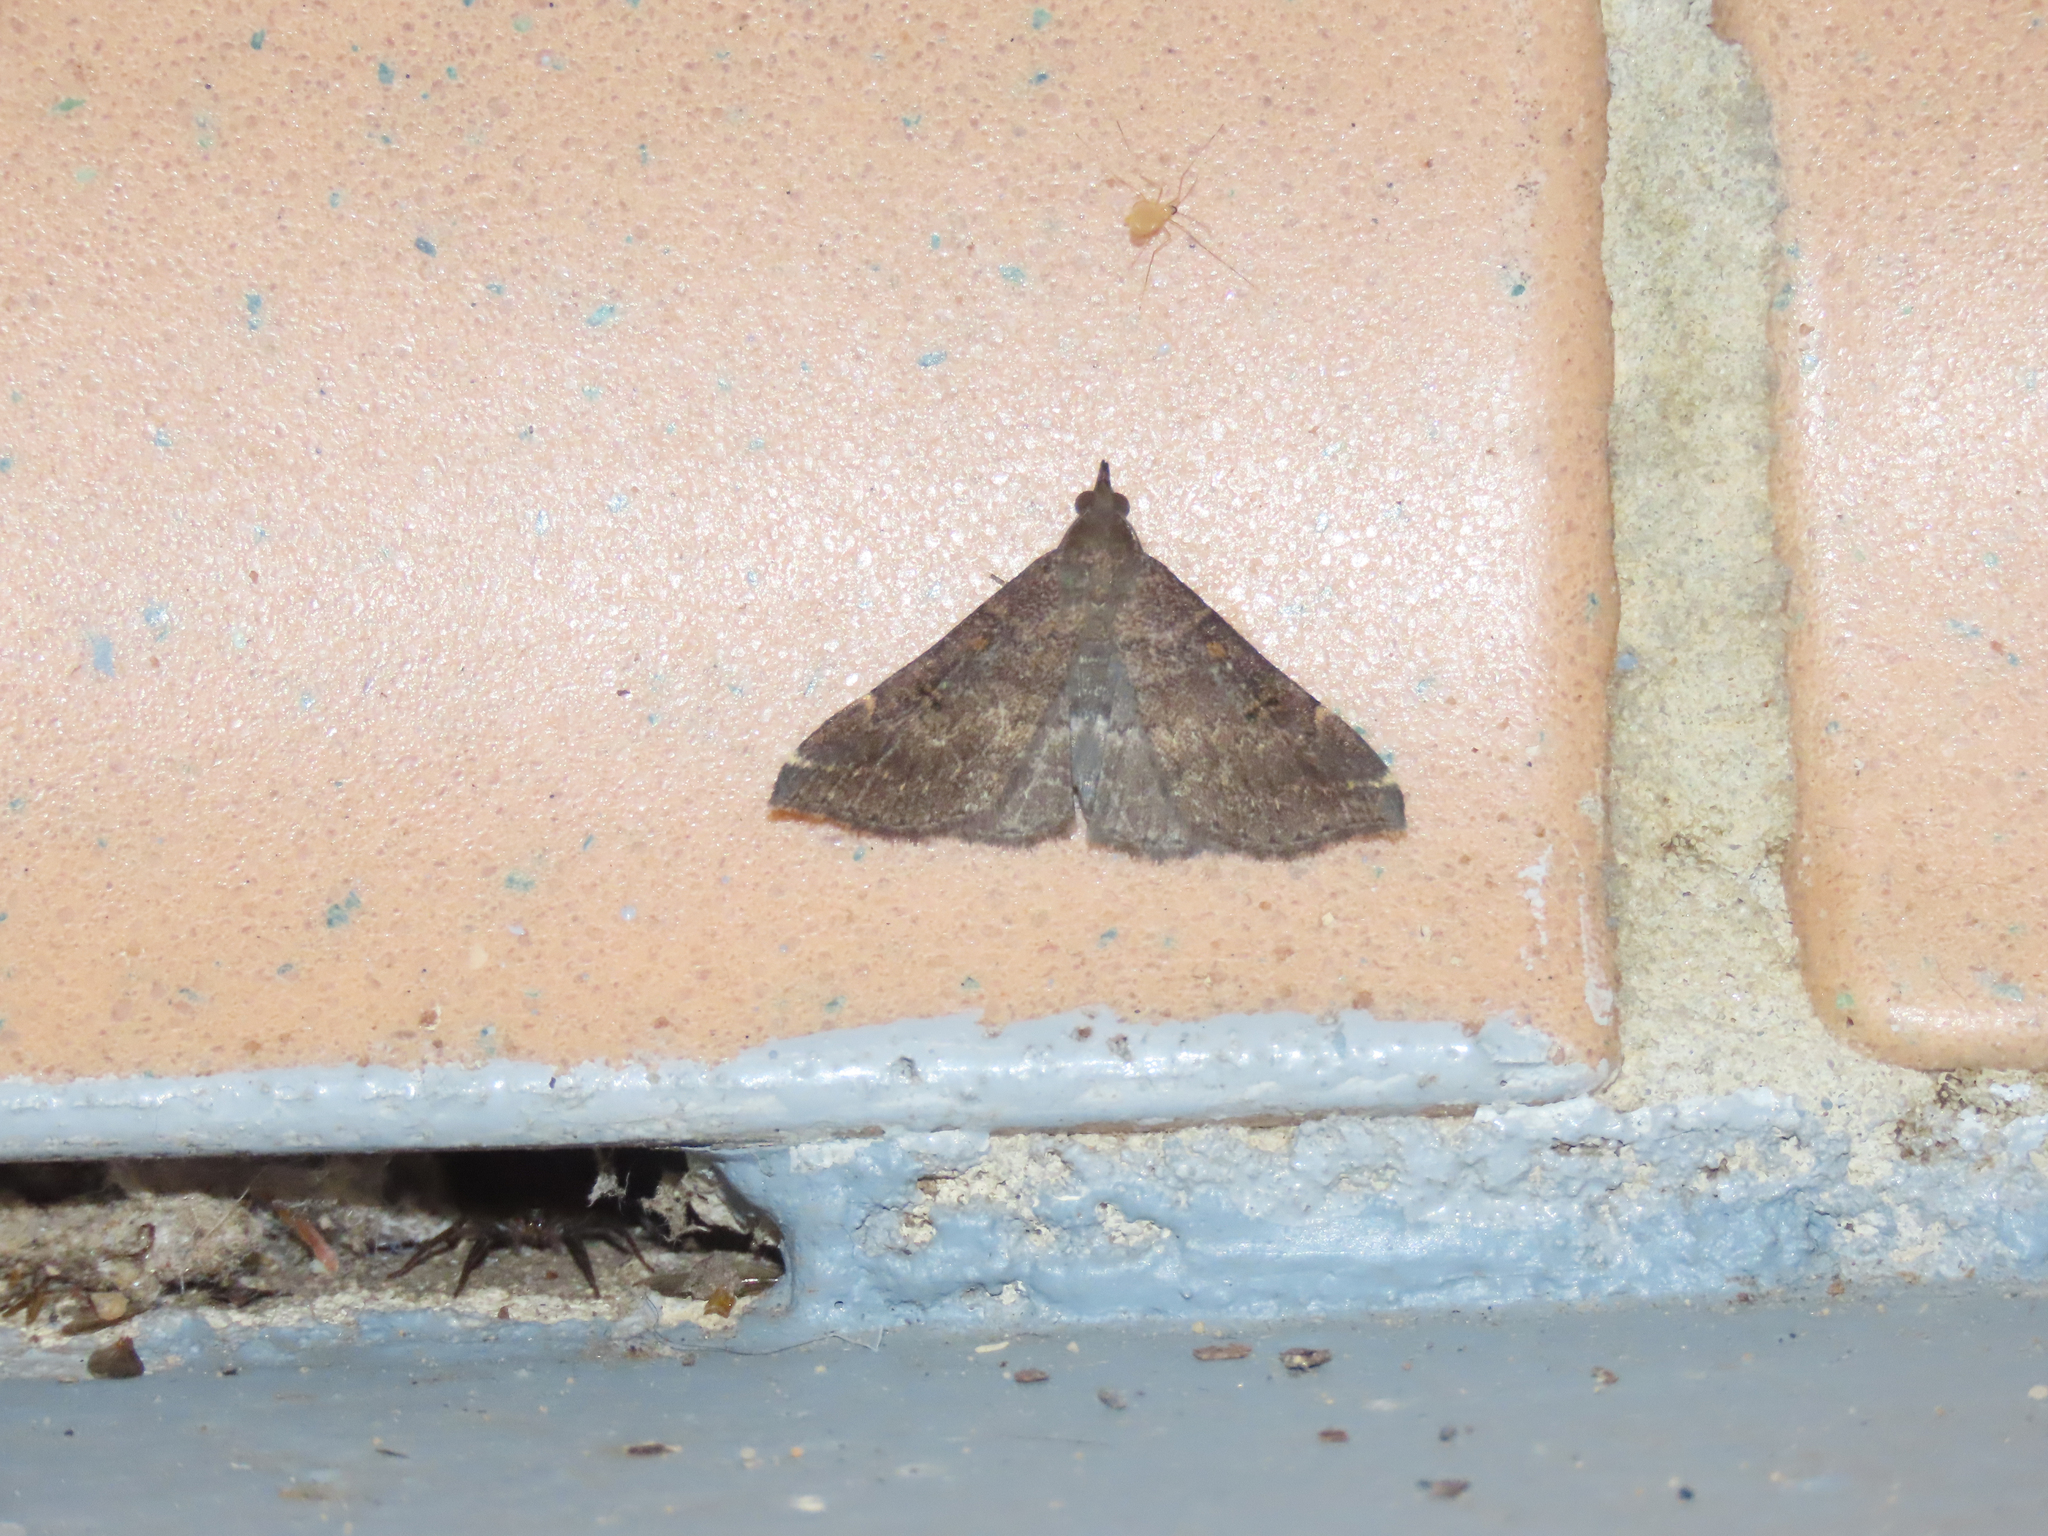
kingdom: Animalia
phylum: Arthropoda
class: Insecta
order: Lepidoptera
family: Erebidae
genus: Renia
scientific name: Renia factiosalis
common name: Sociable renia moth
